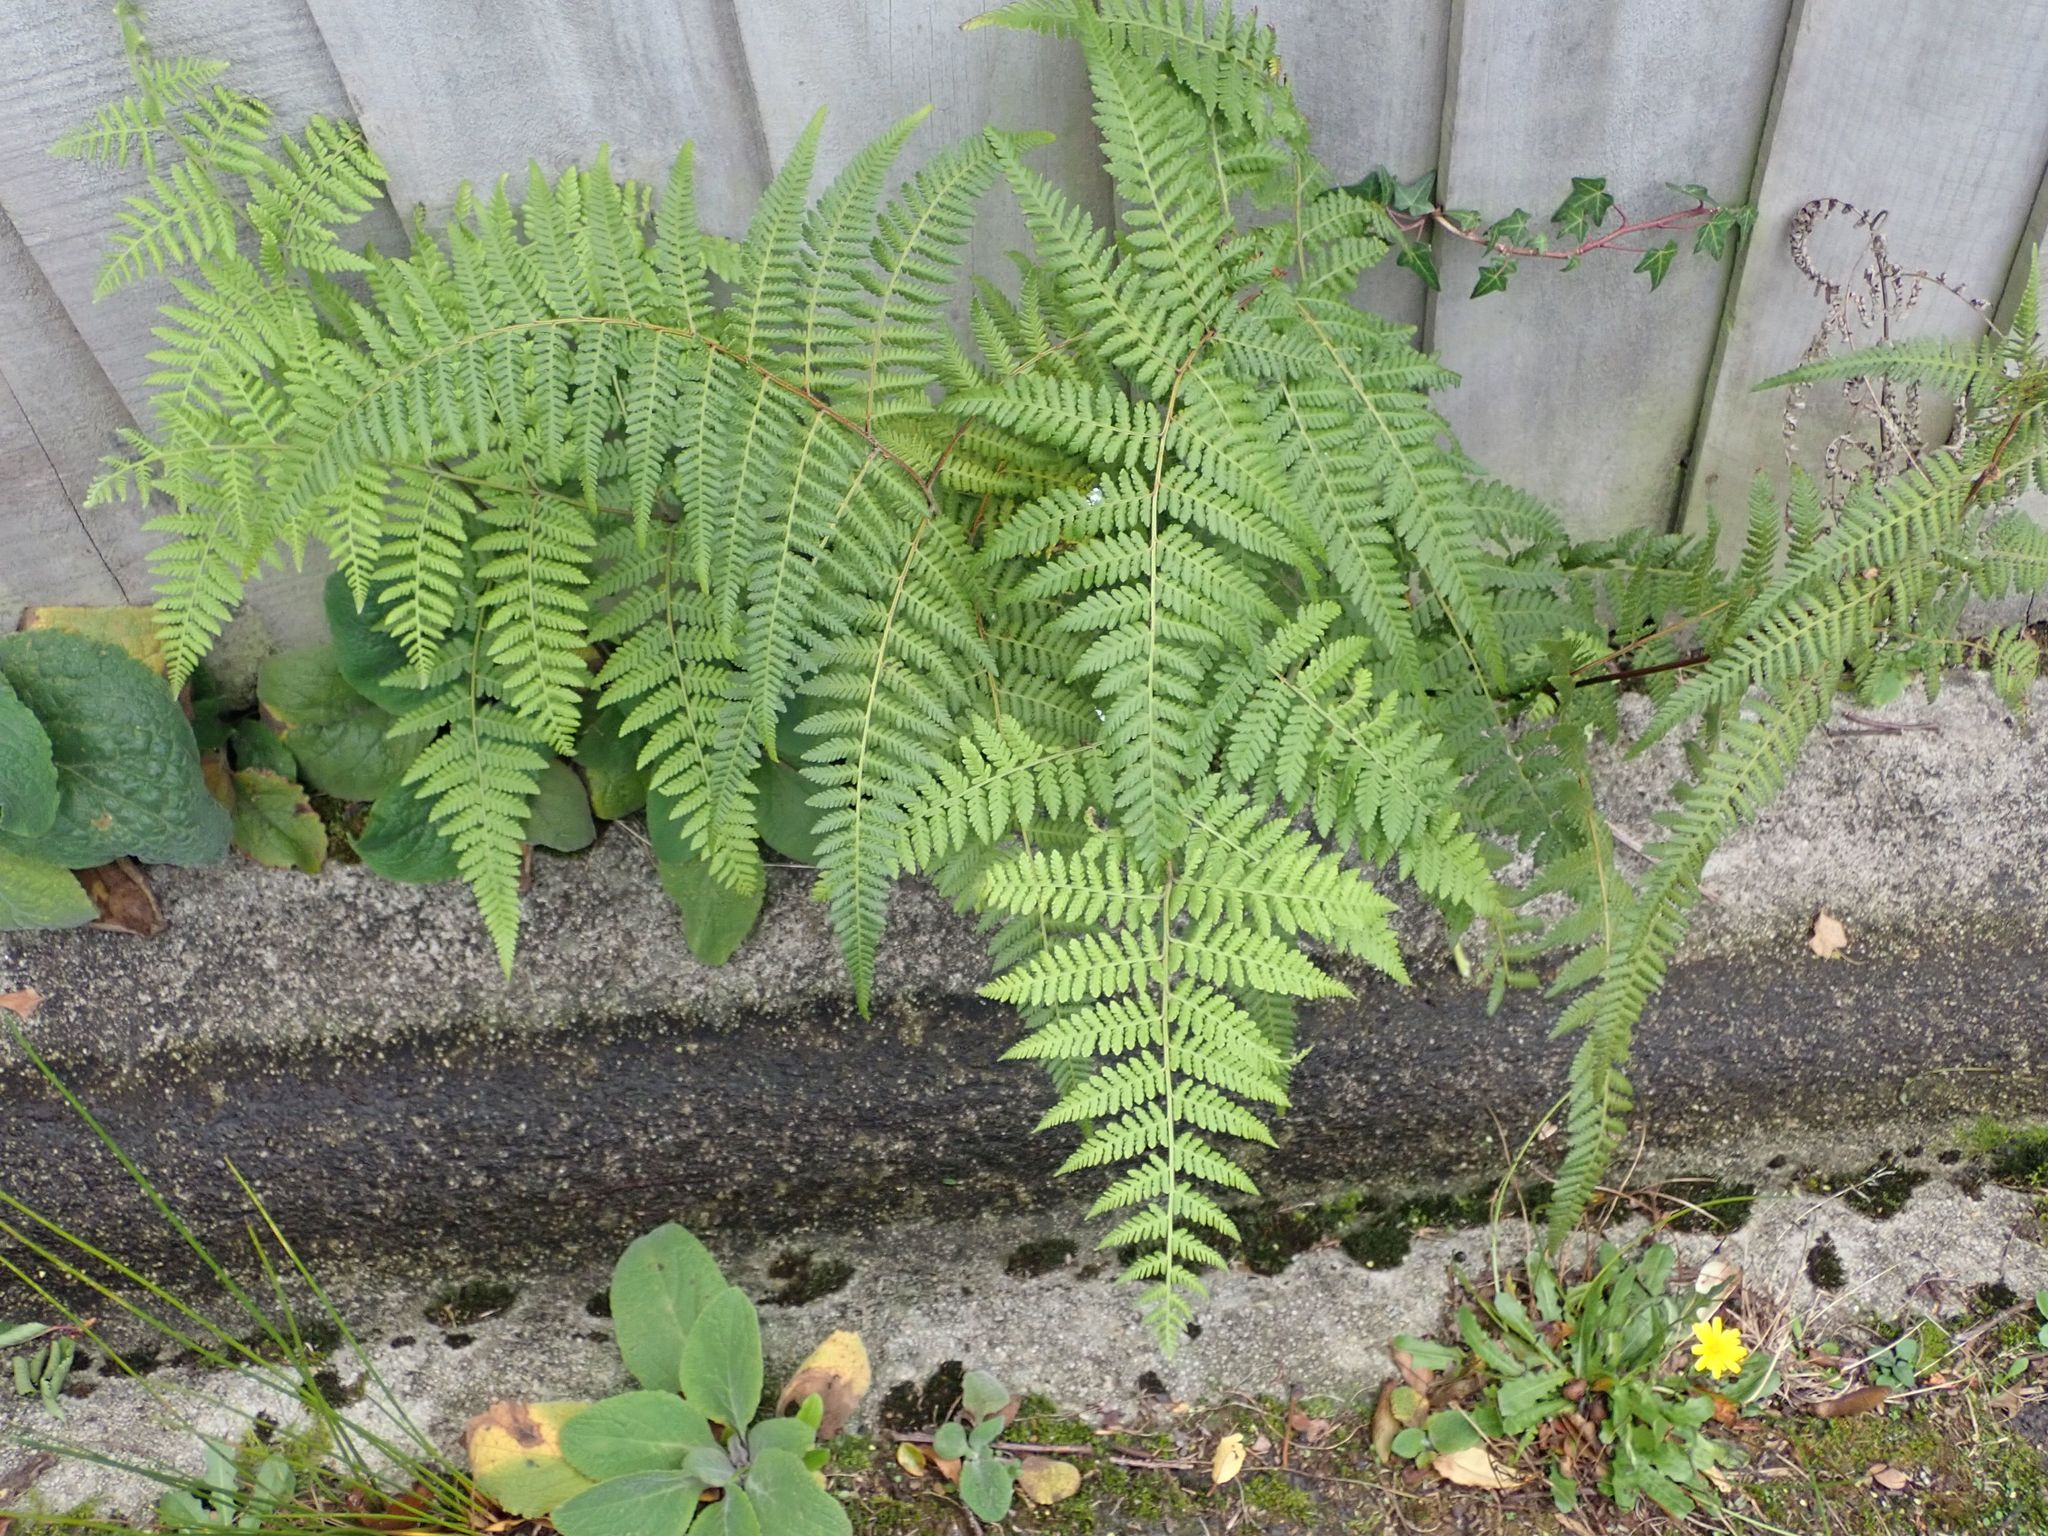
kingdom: Plantae
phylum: Tracheophyta
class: Polypodiopsida
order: Polypodiales
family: Dennstaedtiaceae
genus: Hypolepis
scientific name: Hypolepis ambigua
